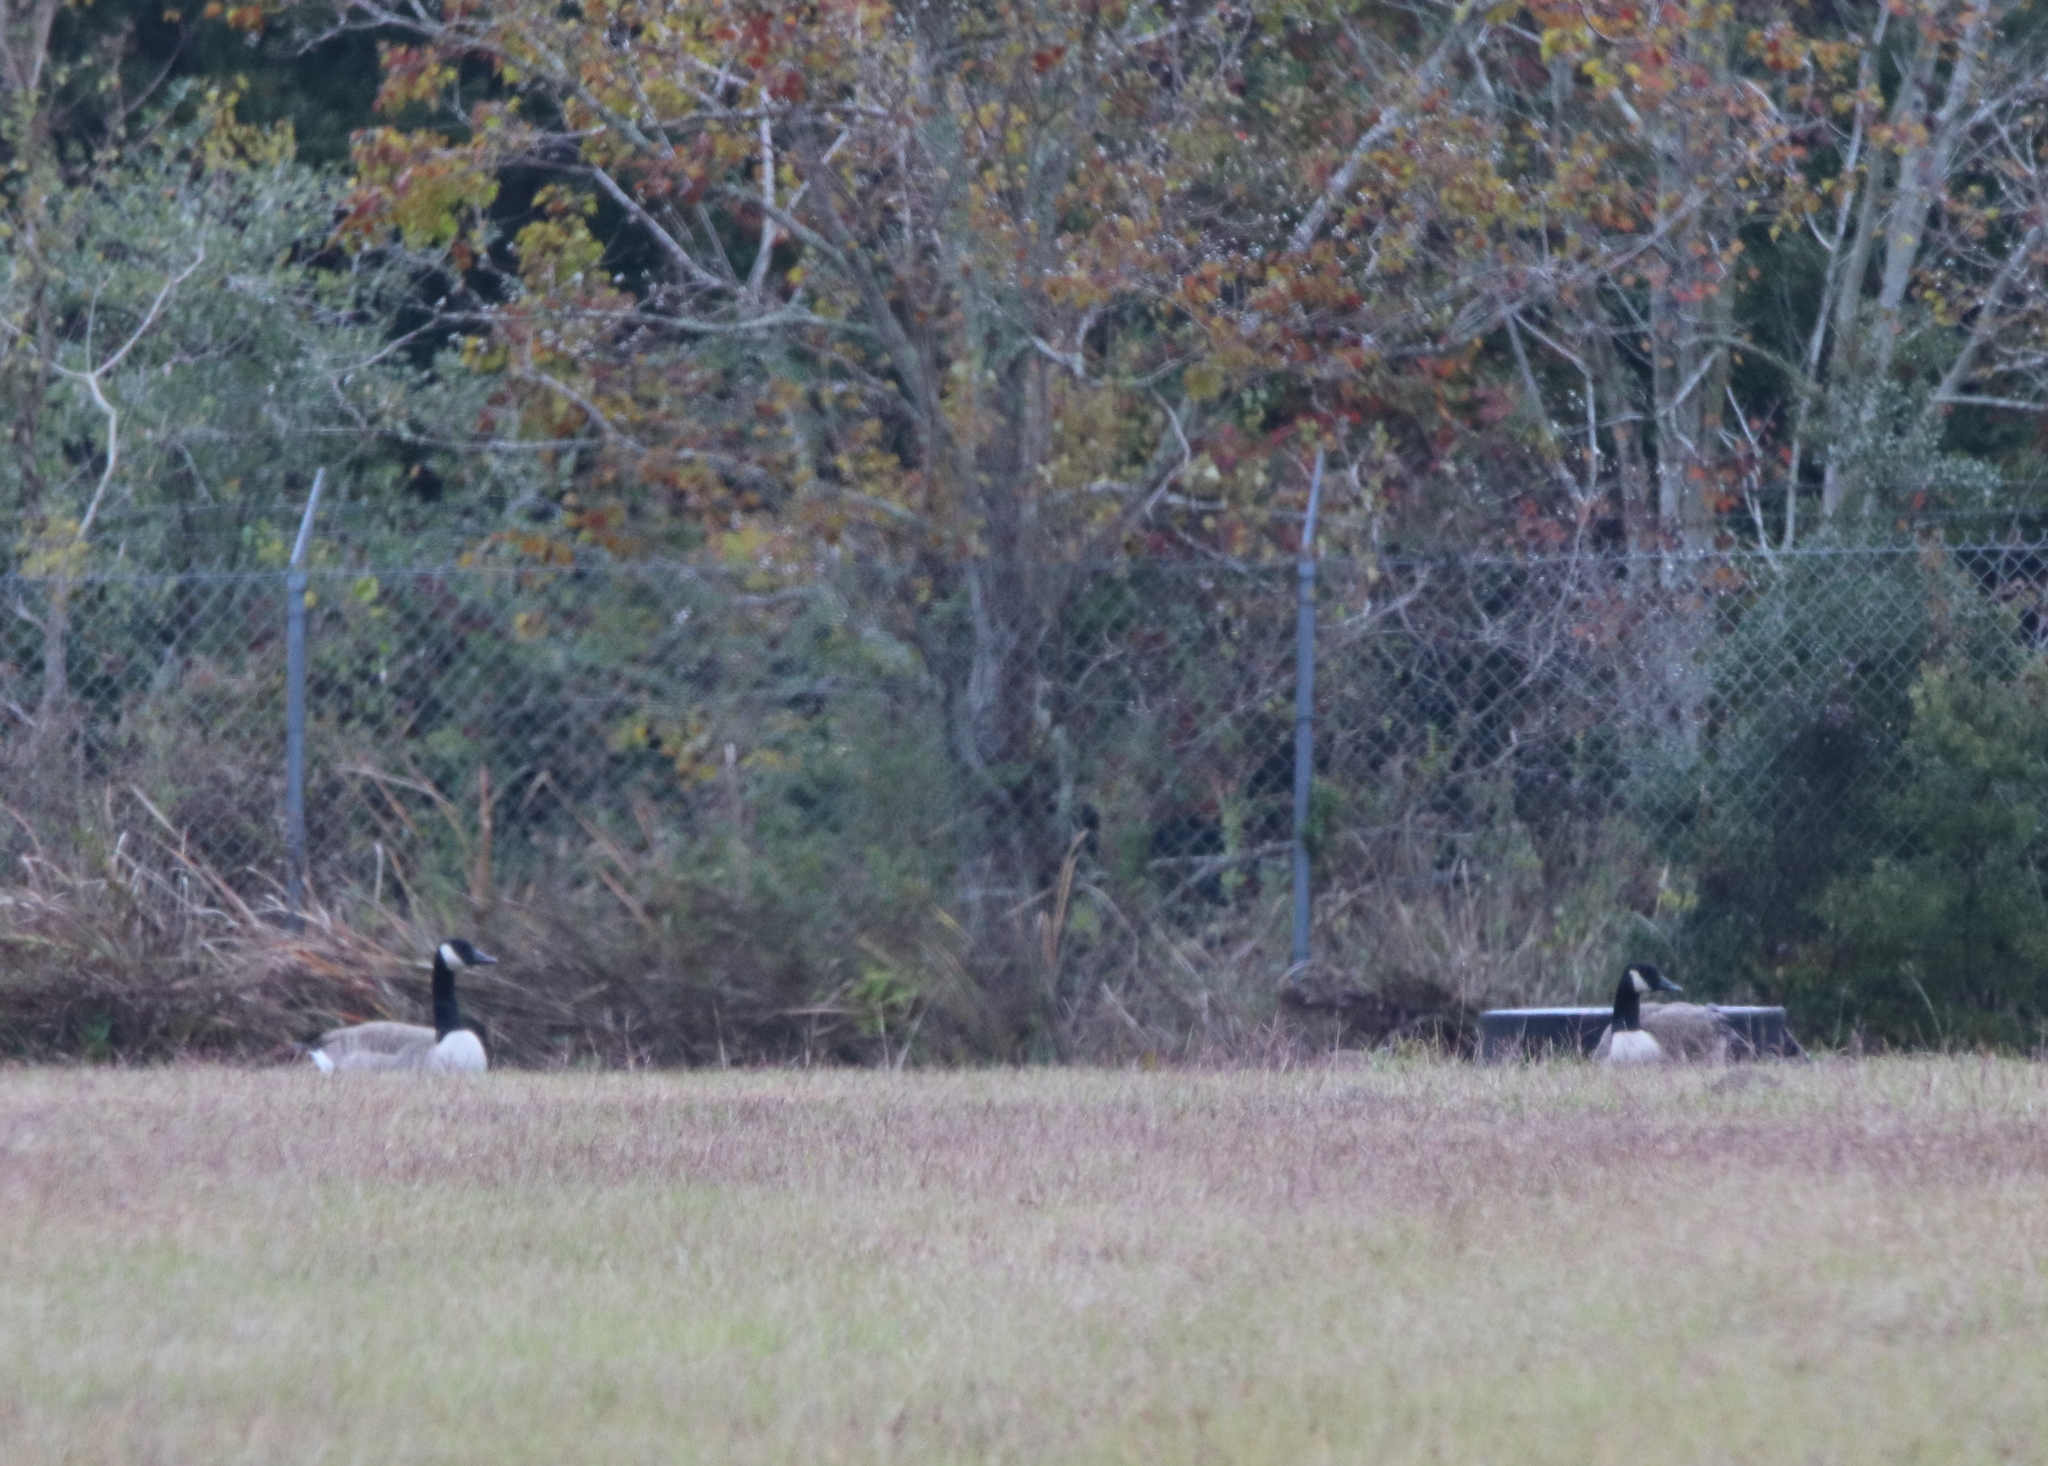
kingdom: Animalia
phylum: Chordata
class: Aves
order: Anseriformes
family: Anatidae
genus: Branta
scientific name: Branta canadensis
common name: Canada goose
